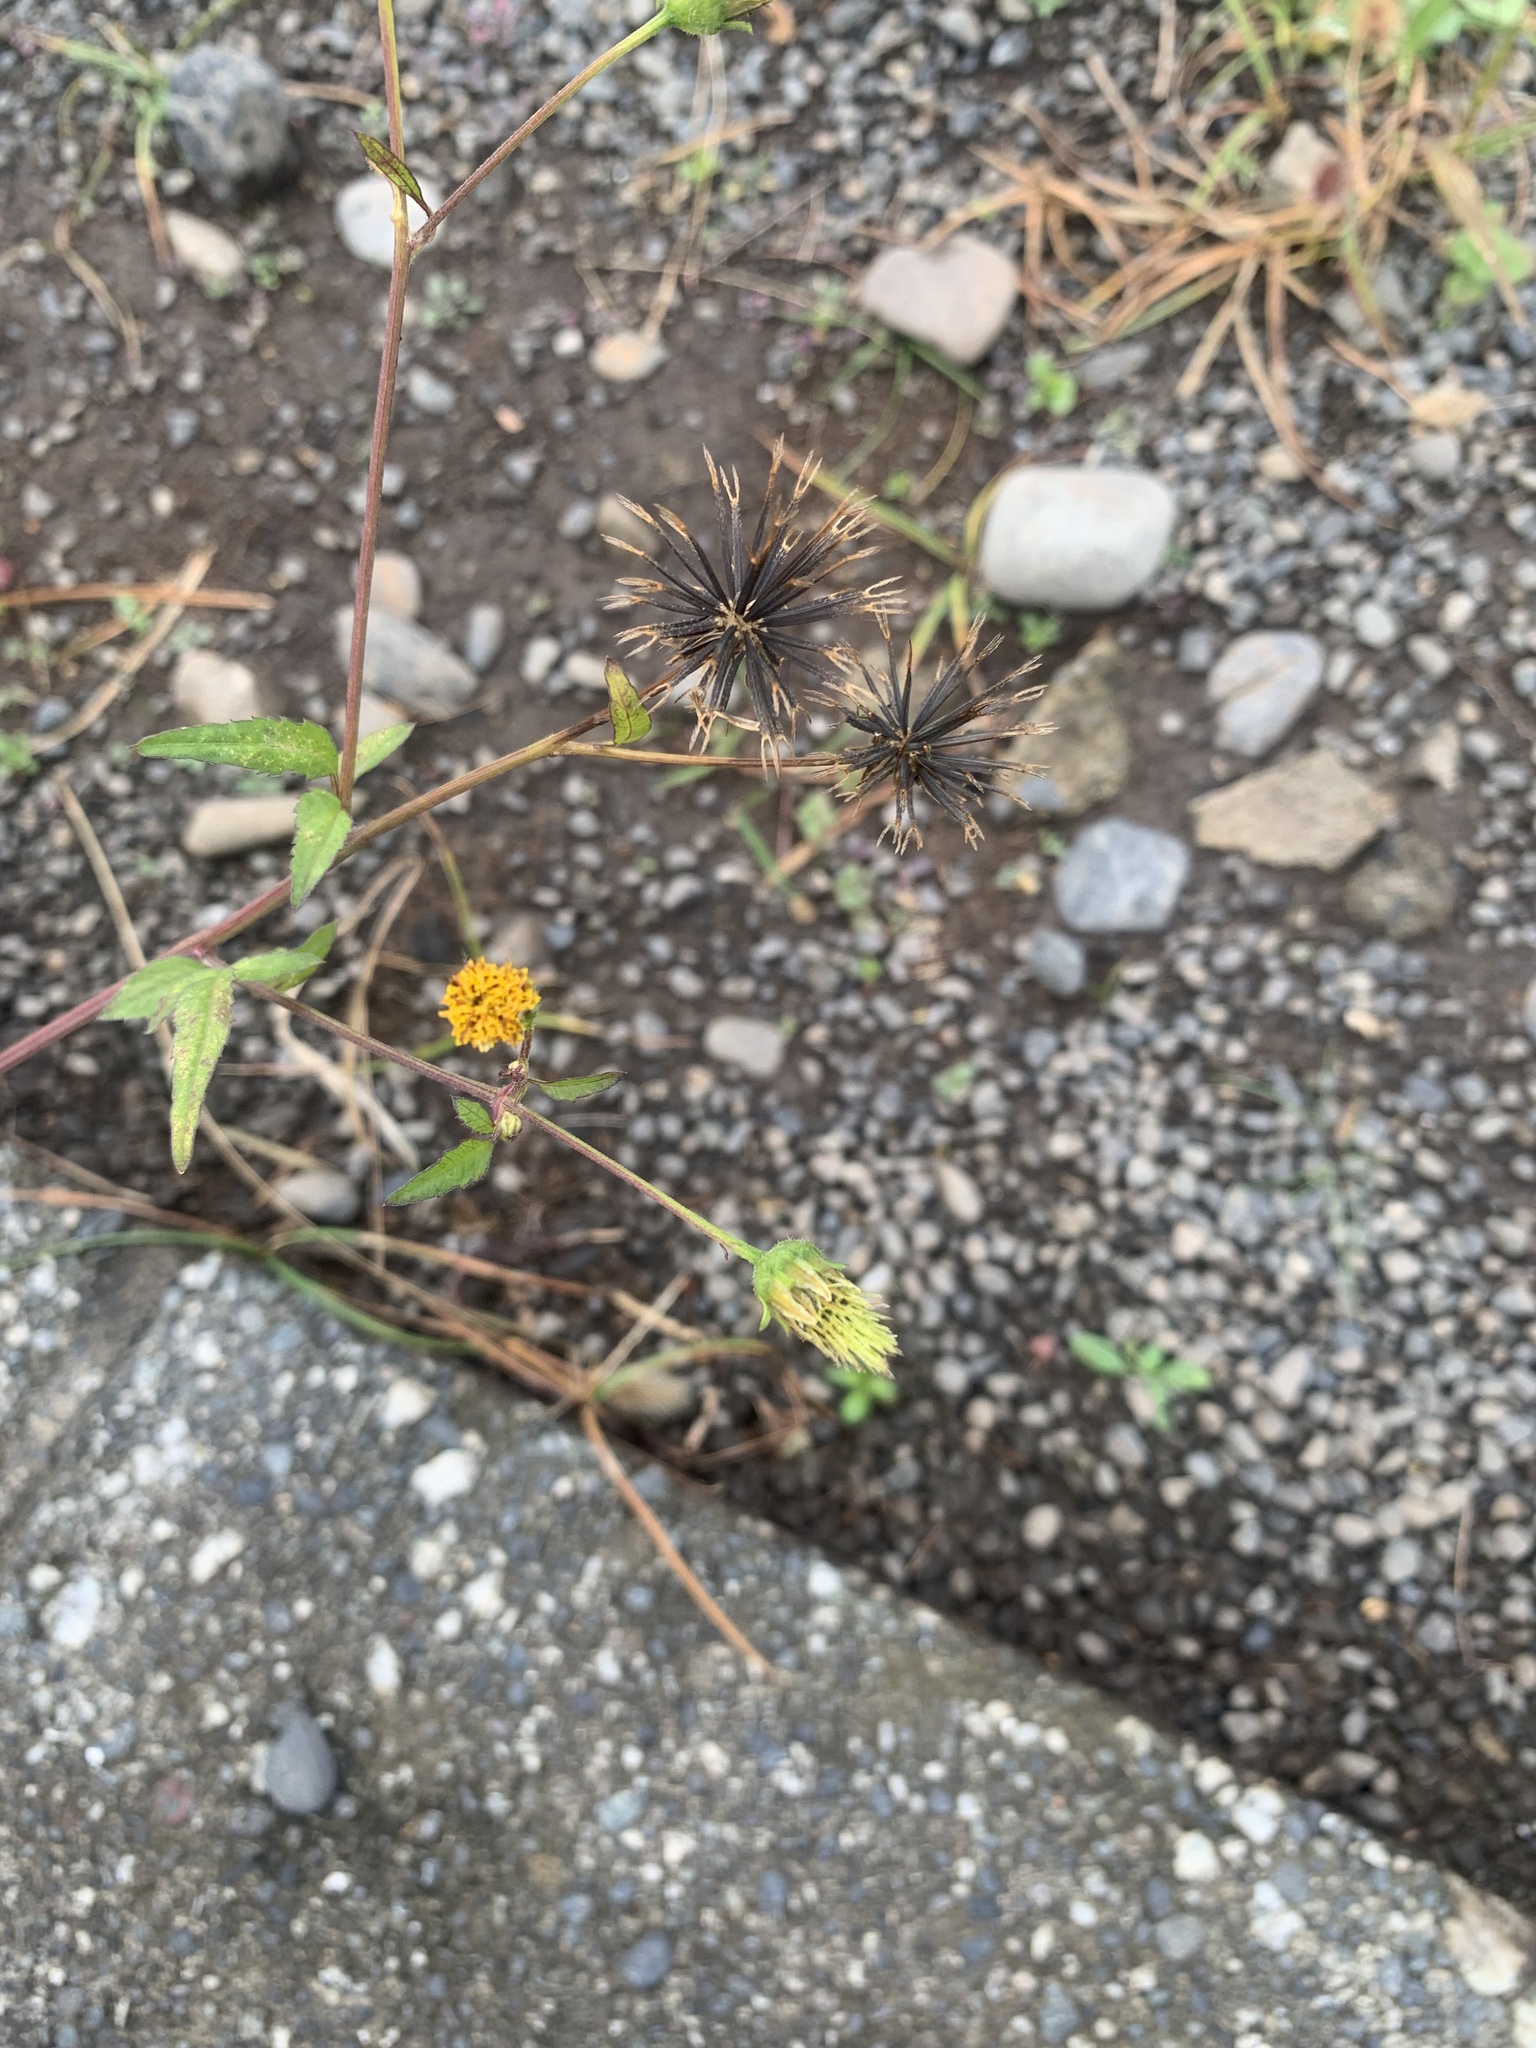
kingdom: Plantae
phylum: Tracheophyta
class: Magnoliopsida
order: Asterales
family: Asteraceae
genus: Bidens
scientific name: Bidens pilosa
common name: Black-jack
